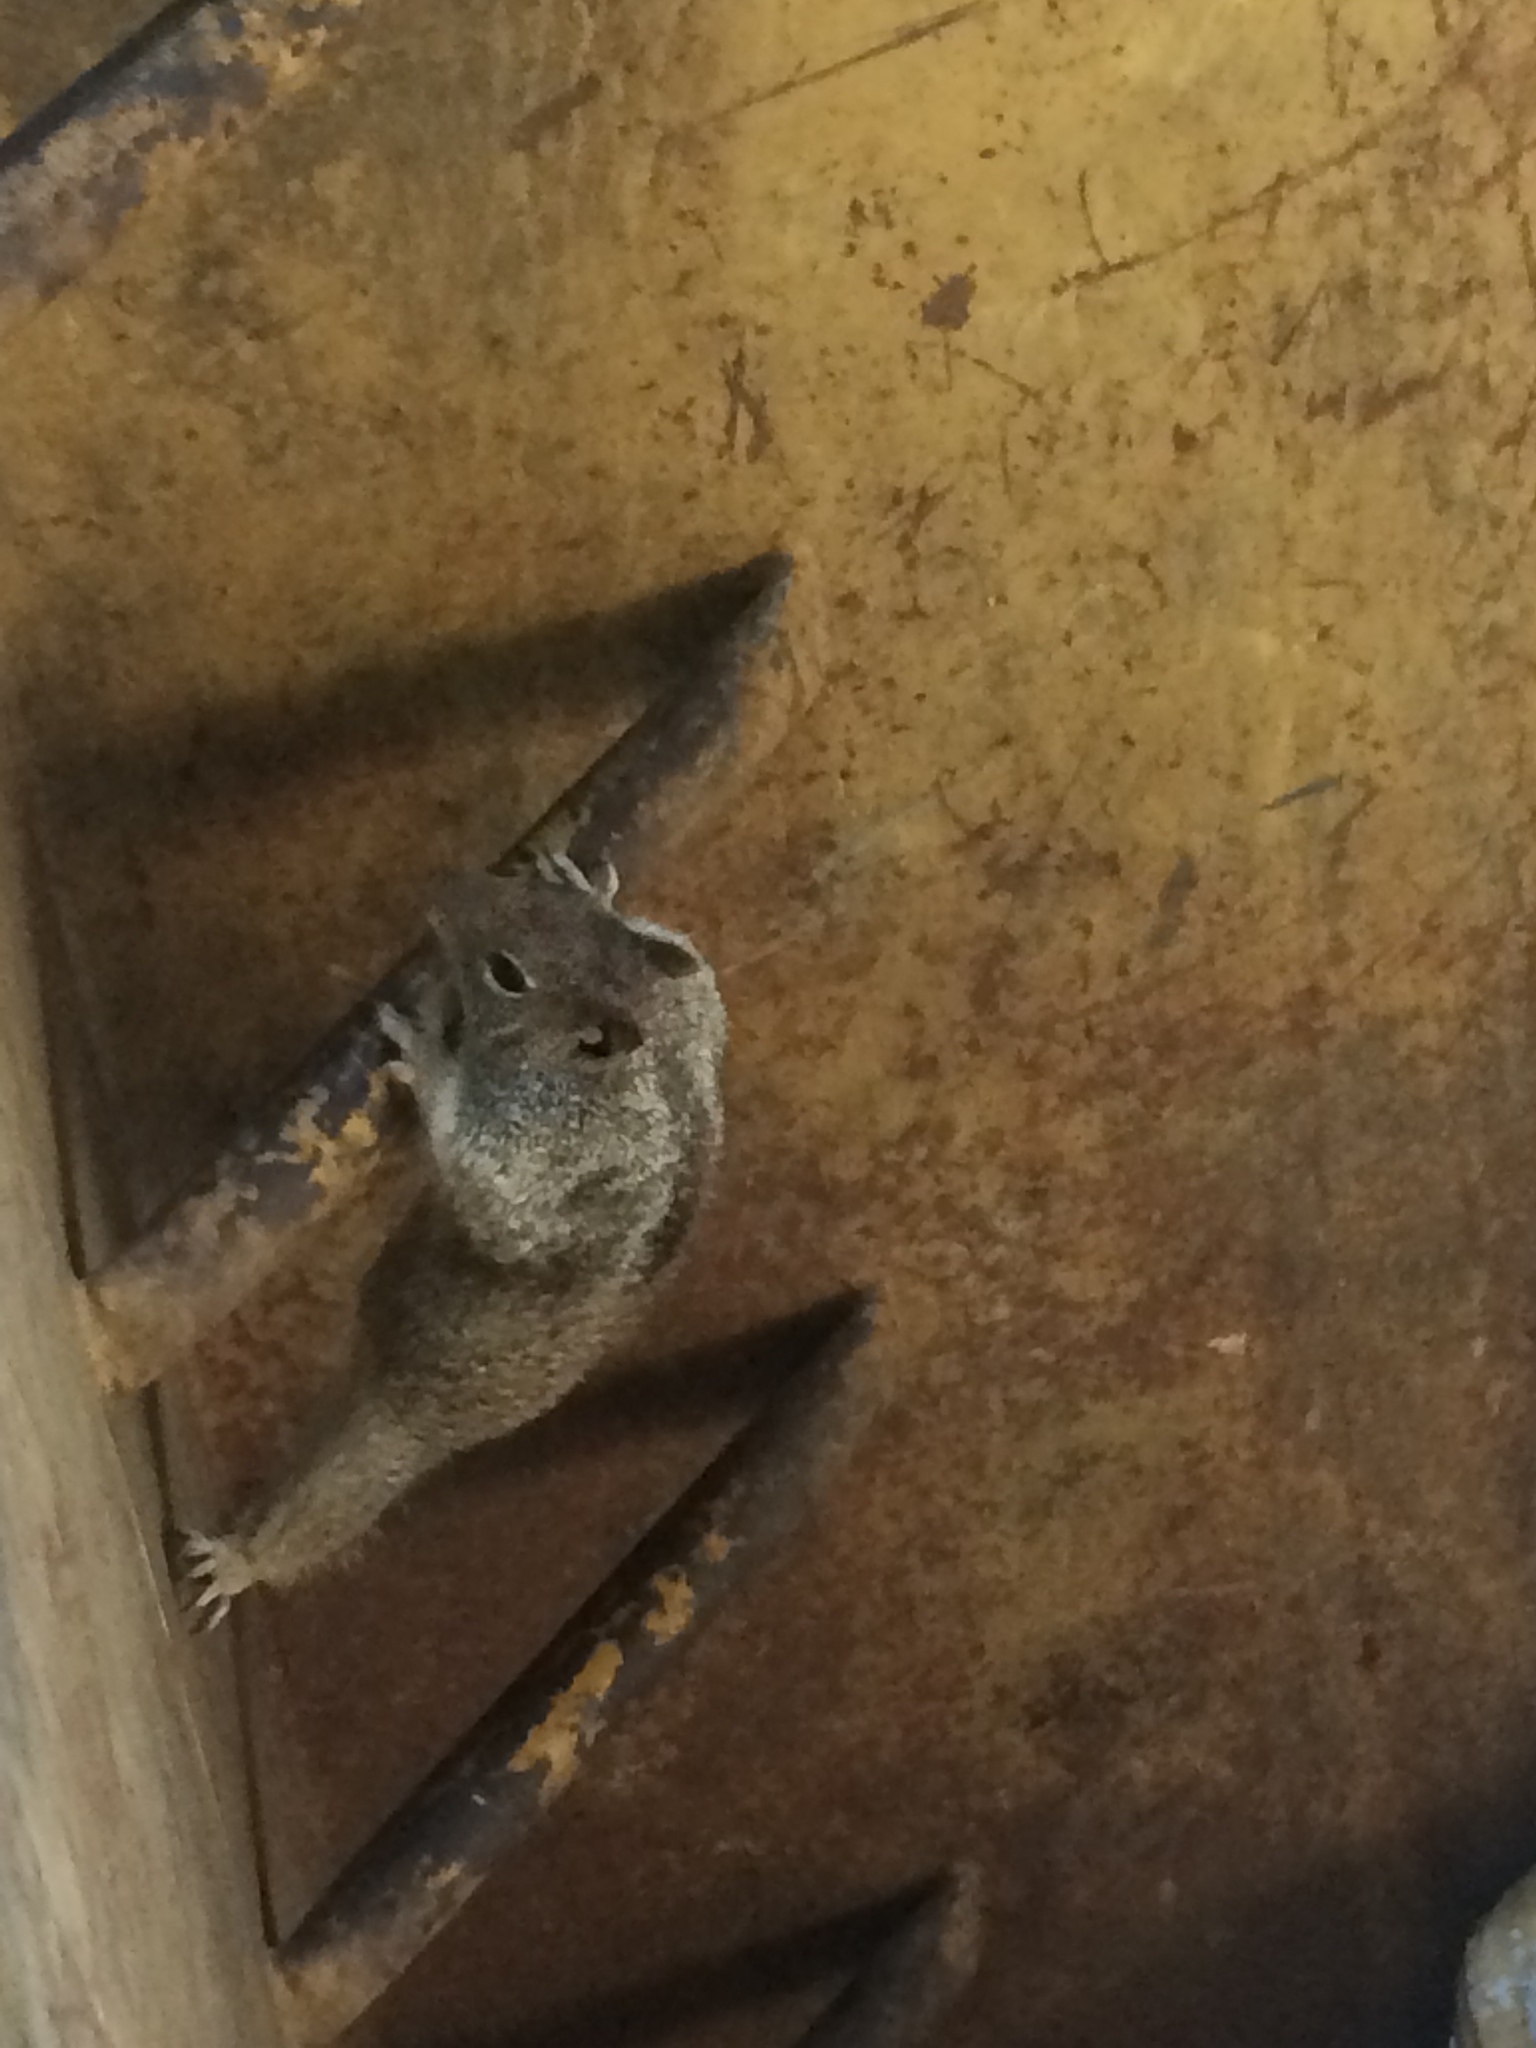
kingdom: Animalia
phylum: Chordata
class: Mammalia
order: Rodentia
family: Sciuridae
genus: Otospermophilus
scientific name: Otospermophilus beecheyi
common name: California ground squirrel
